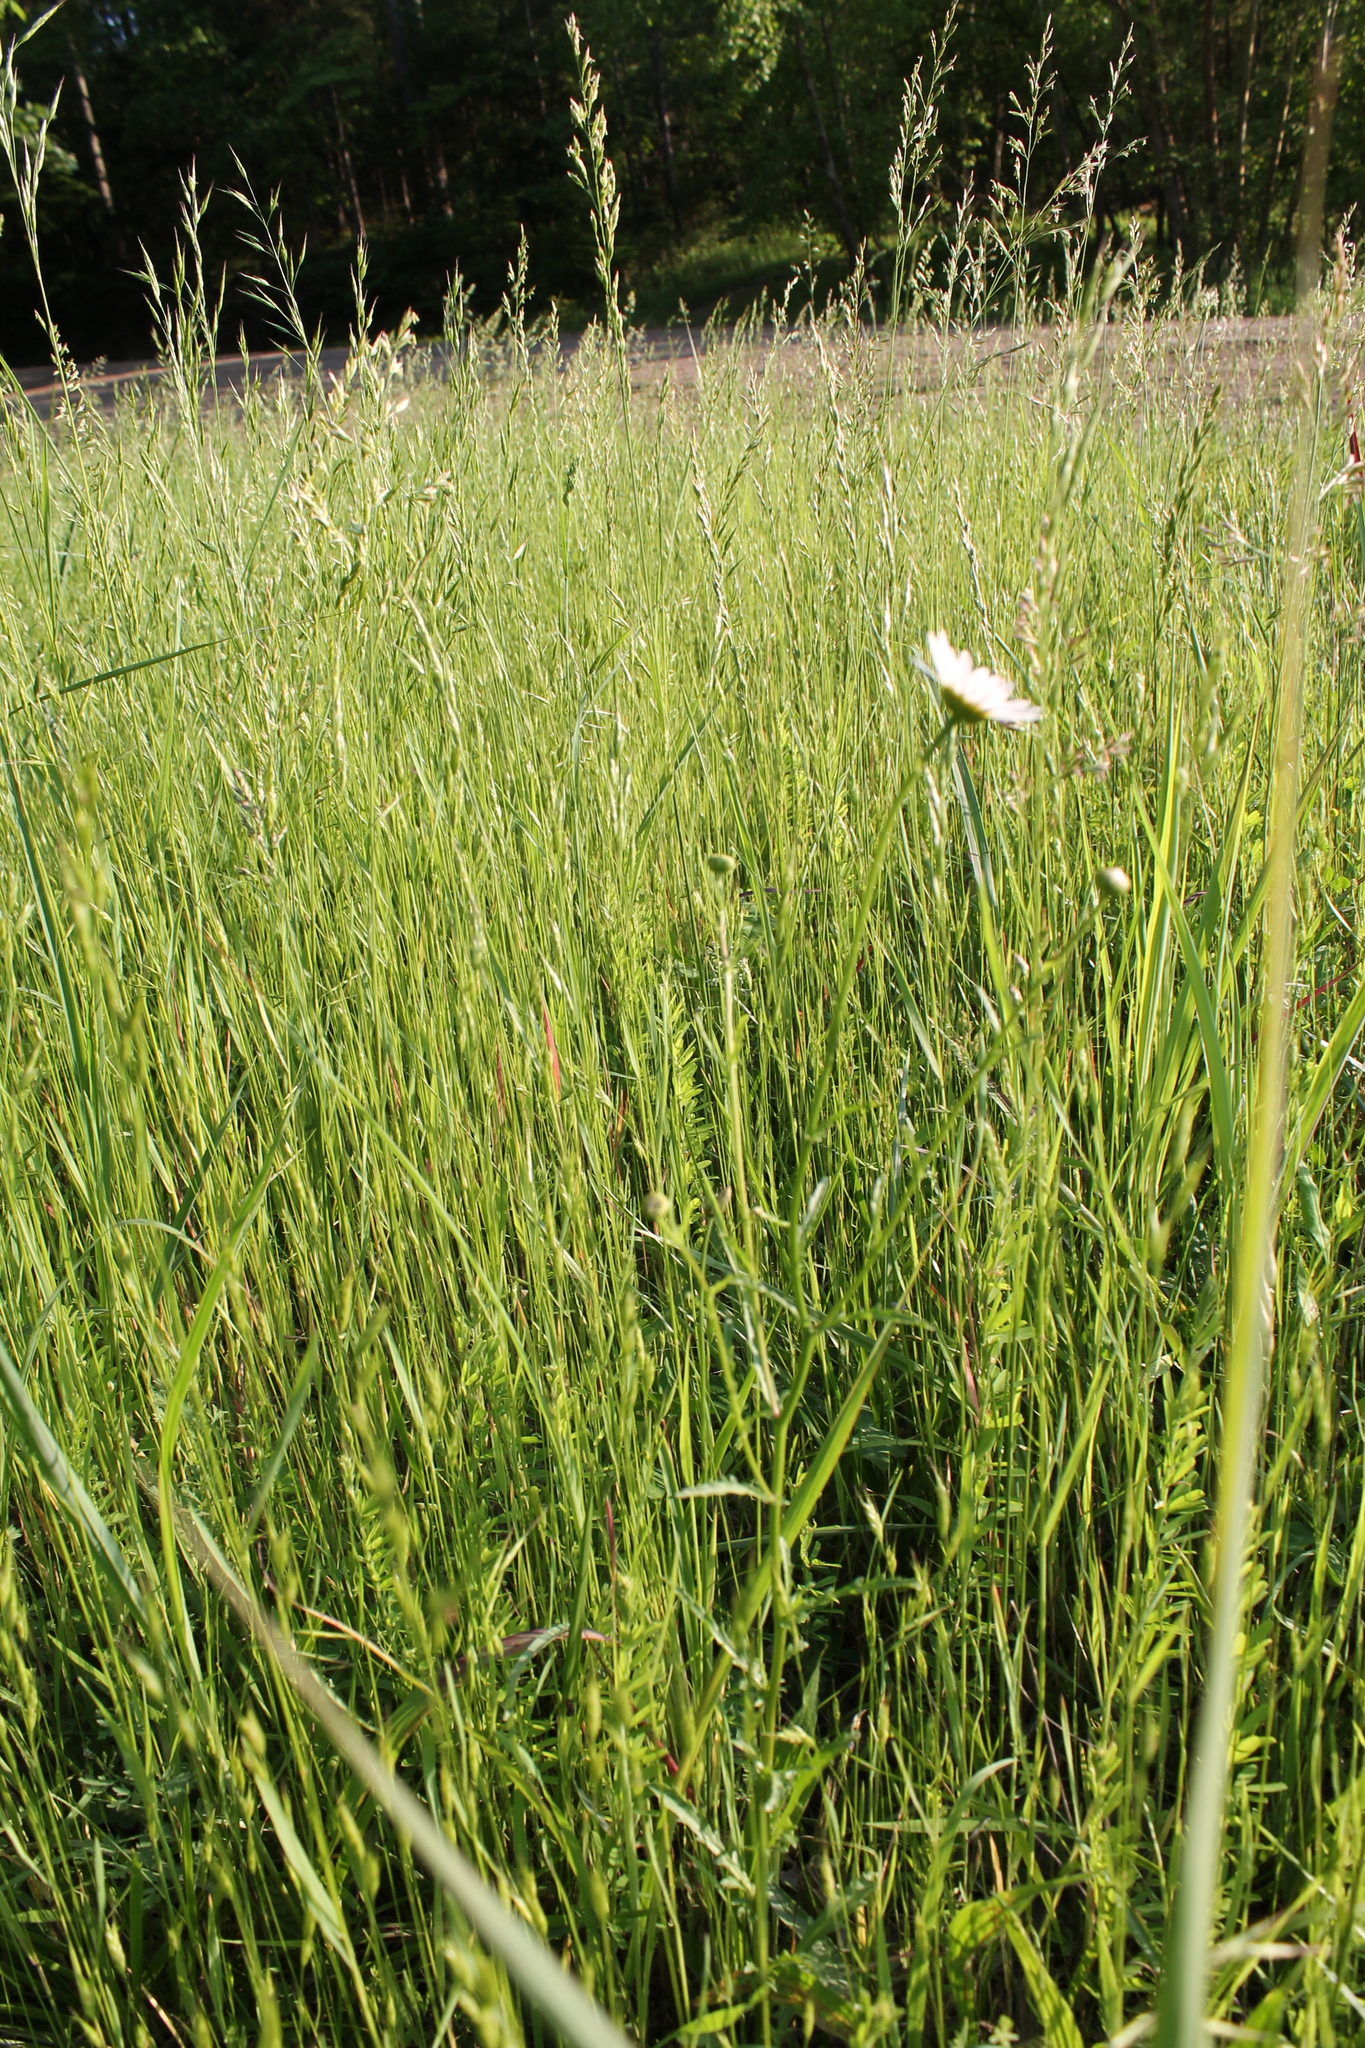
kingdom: Plantae
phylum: Tracheophyta
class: Magnoliopsida
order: Asterales
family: Asteraceae
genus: Leucanthemum
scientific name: Leucanthemum vulgare
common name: Oxeye daisy
